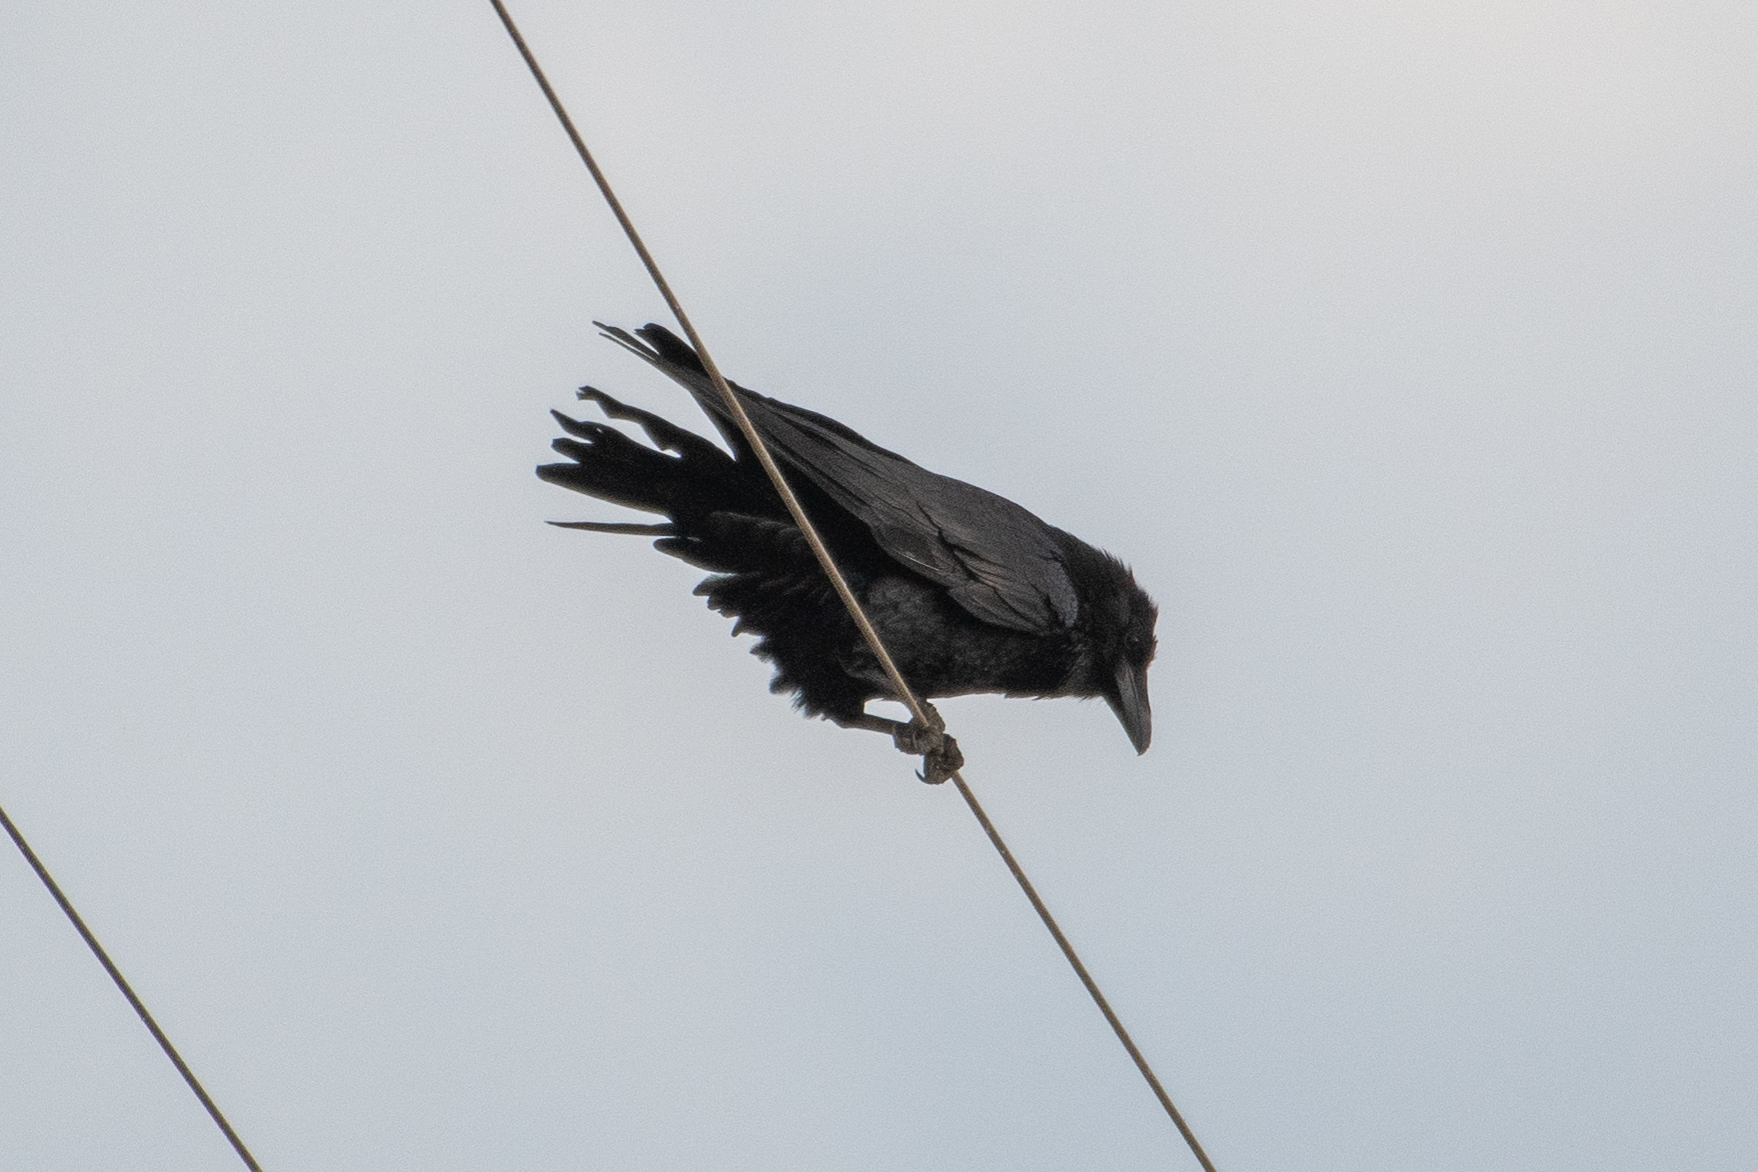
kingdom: Animalia
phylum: Chordata
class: Aves
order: Passeriformes
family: Corvidae
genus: Corvus
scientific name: Corvus corax
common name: Common raven
